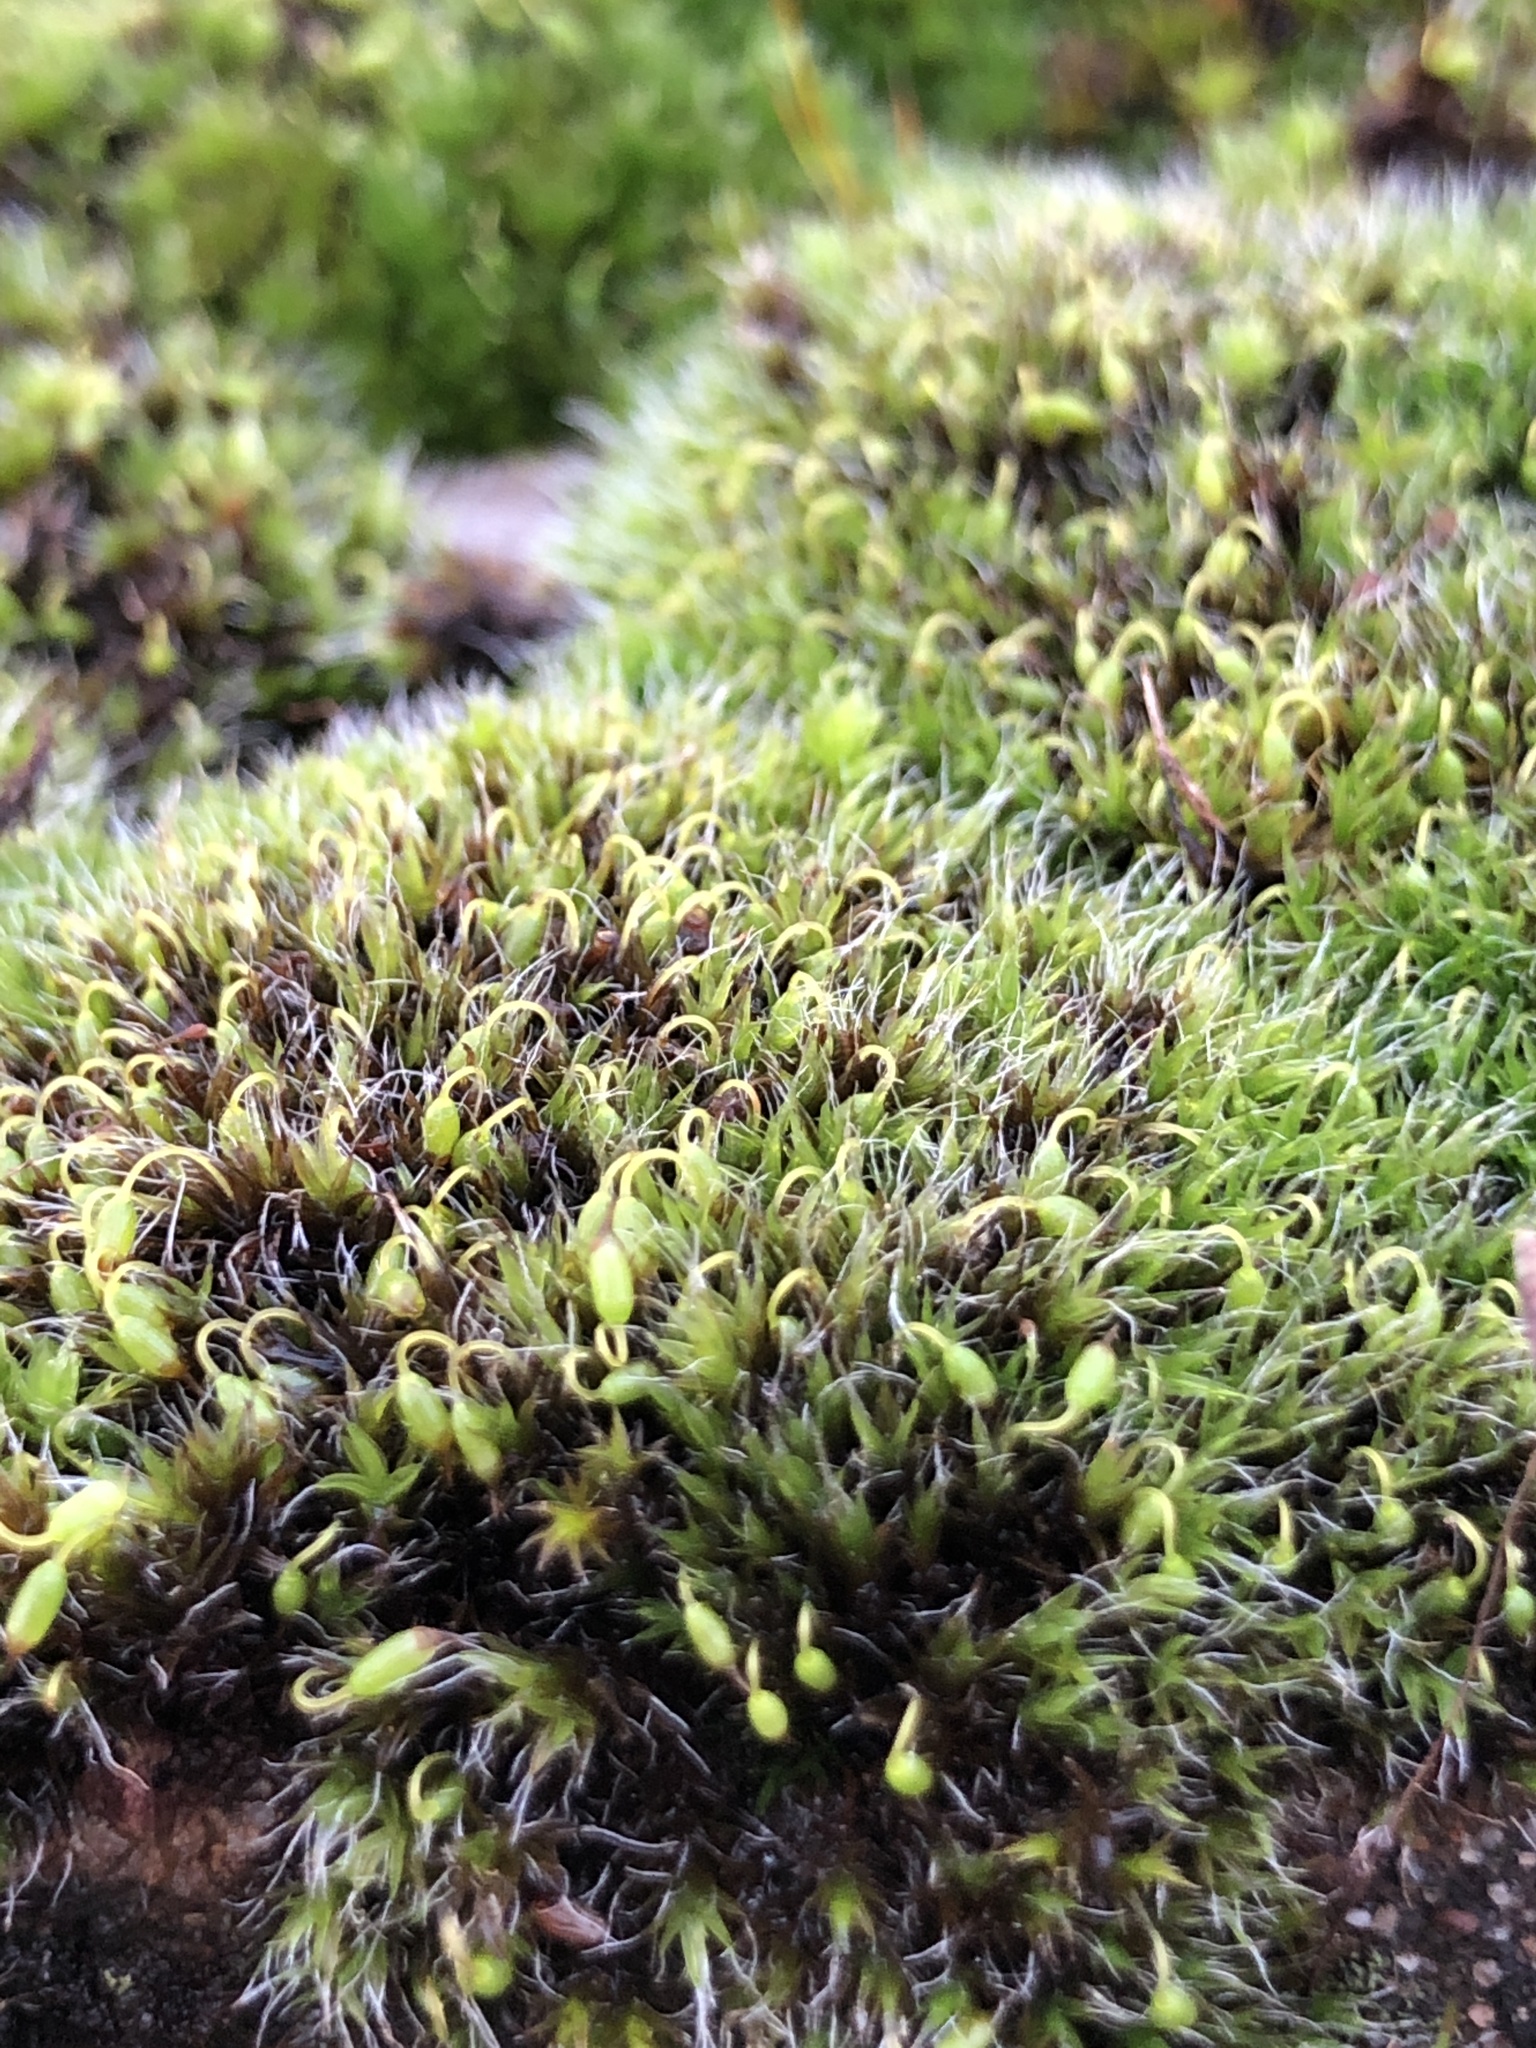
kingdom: Plantae
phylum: Bryophyta
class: Bryopsida
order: Grimmiales
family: Grimmiaceae
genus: Grimmia
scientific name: Grimmia pulvinata
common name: Grey-cushioned grimmia
